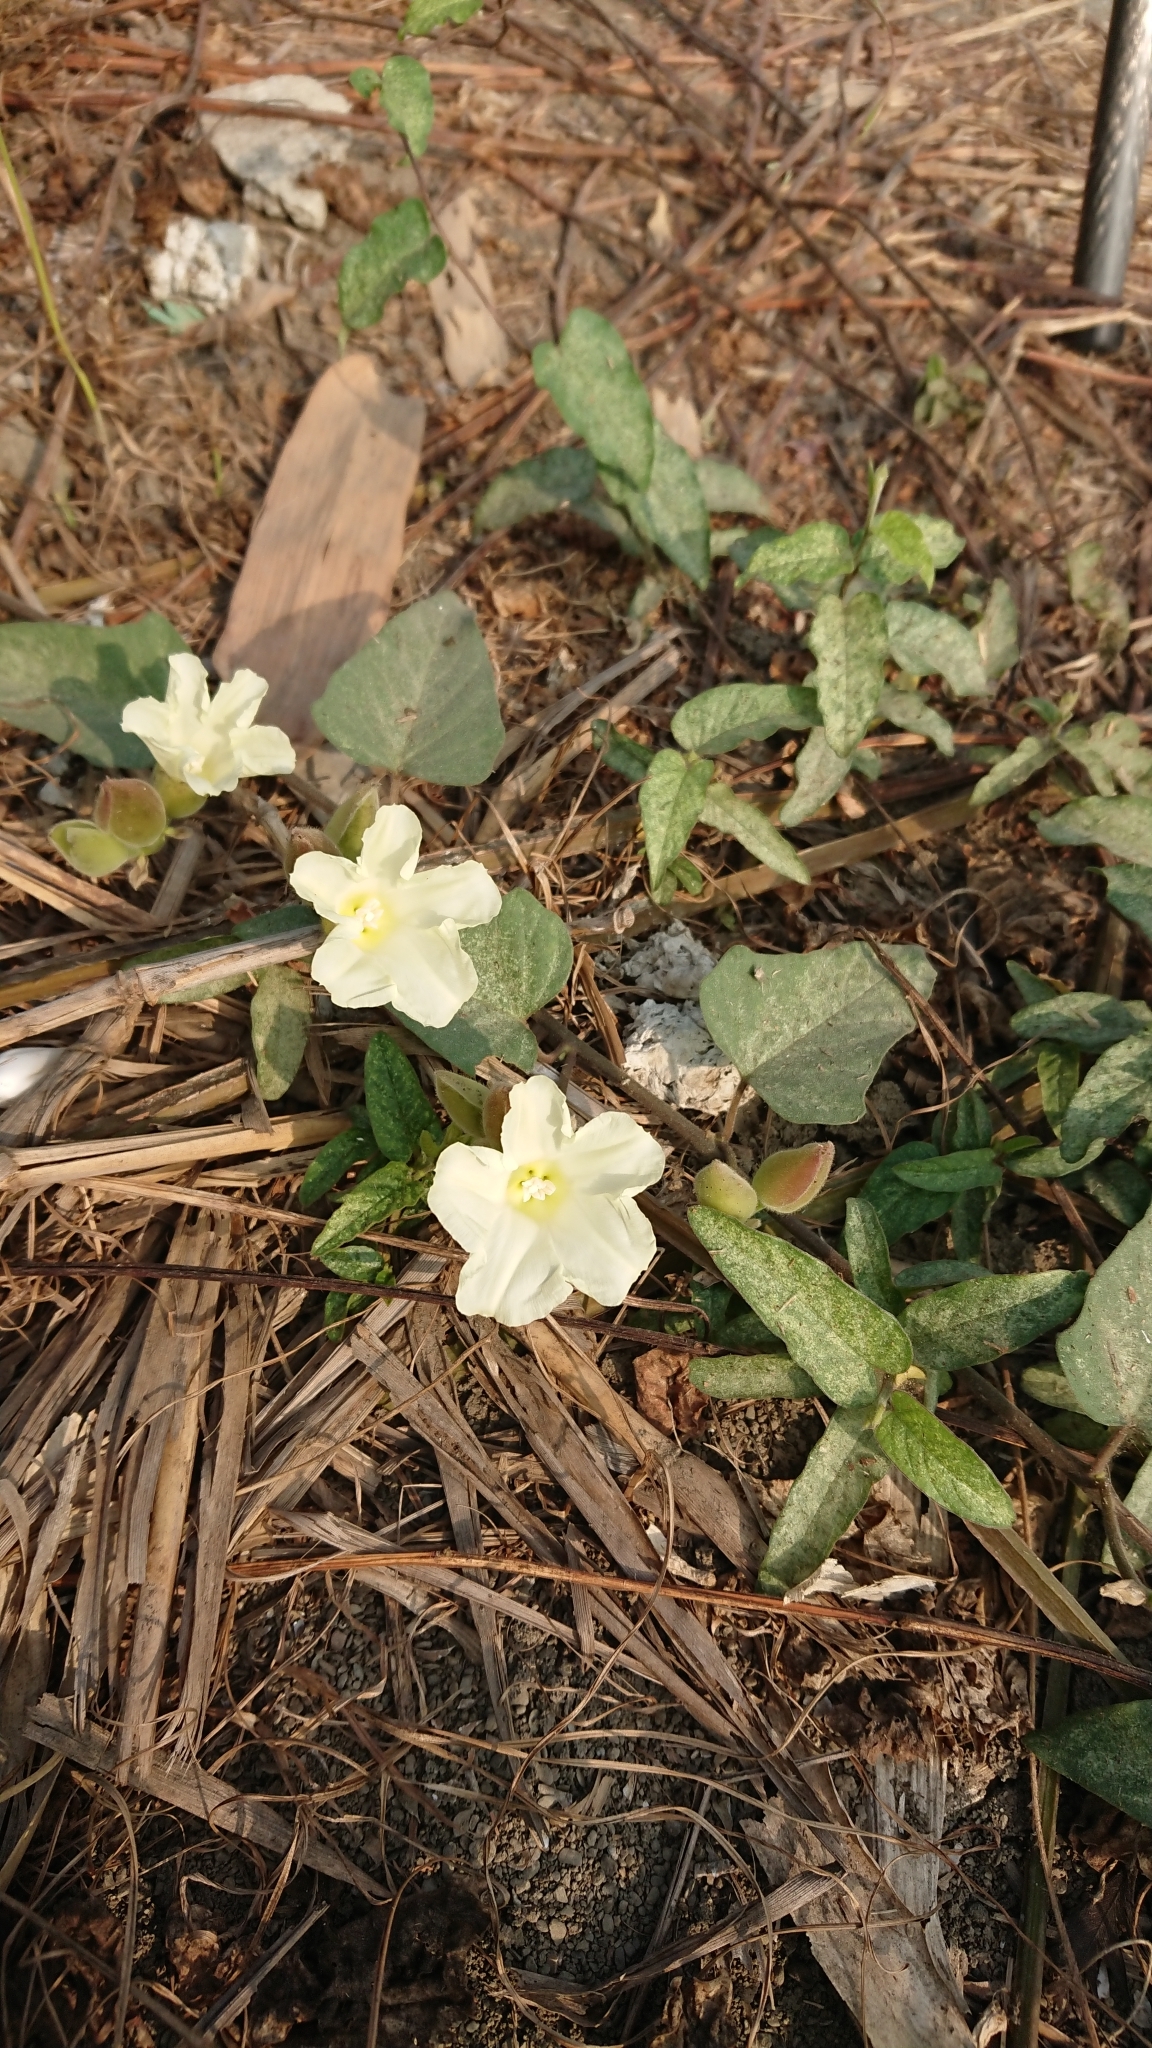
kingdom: Plantae
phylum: Tracheophyta
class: Magnoliopsida
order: Solanales
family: Convolvulaceae
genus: Operculina
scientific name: Operculina turpethum
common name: Transparent wood-rose
